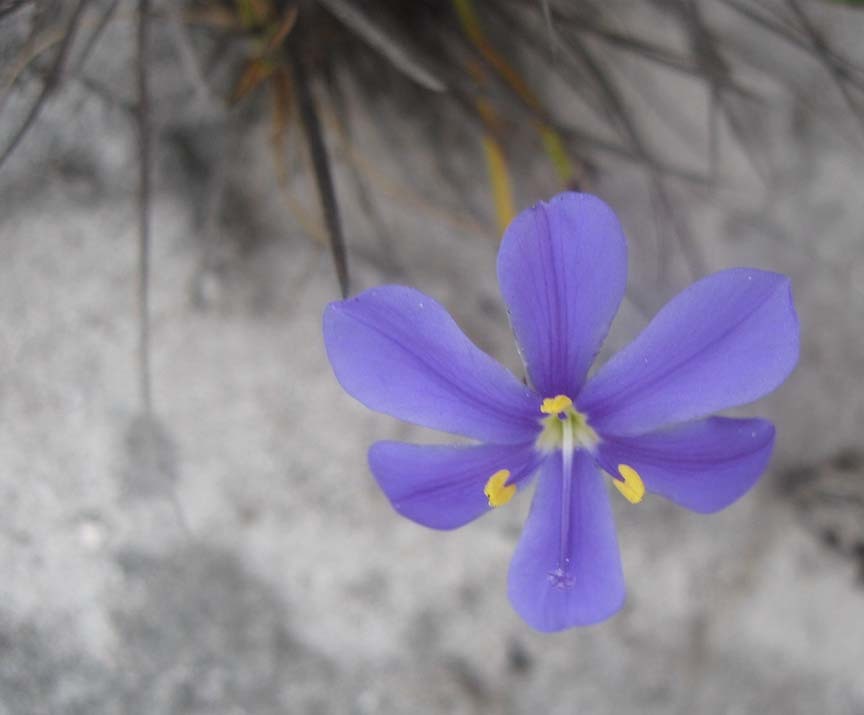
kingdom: Plantae
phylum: Tracheophyta
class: Liliopsida
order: Asparagales
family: Iridaceae
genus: Aristea
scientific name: Aristea africana
